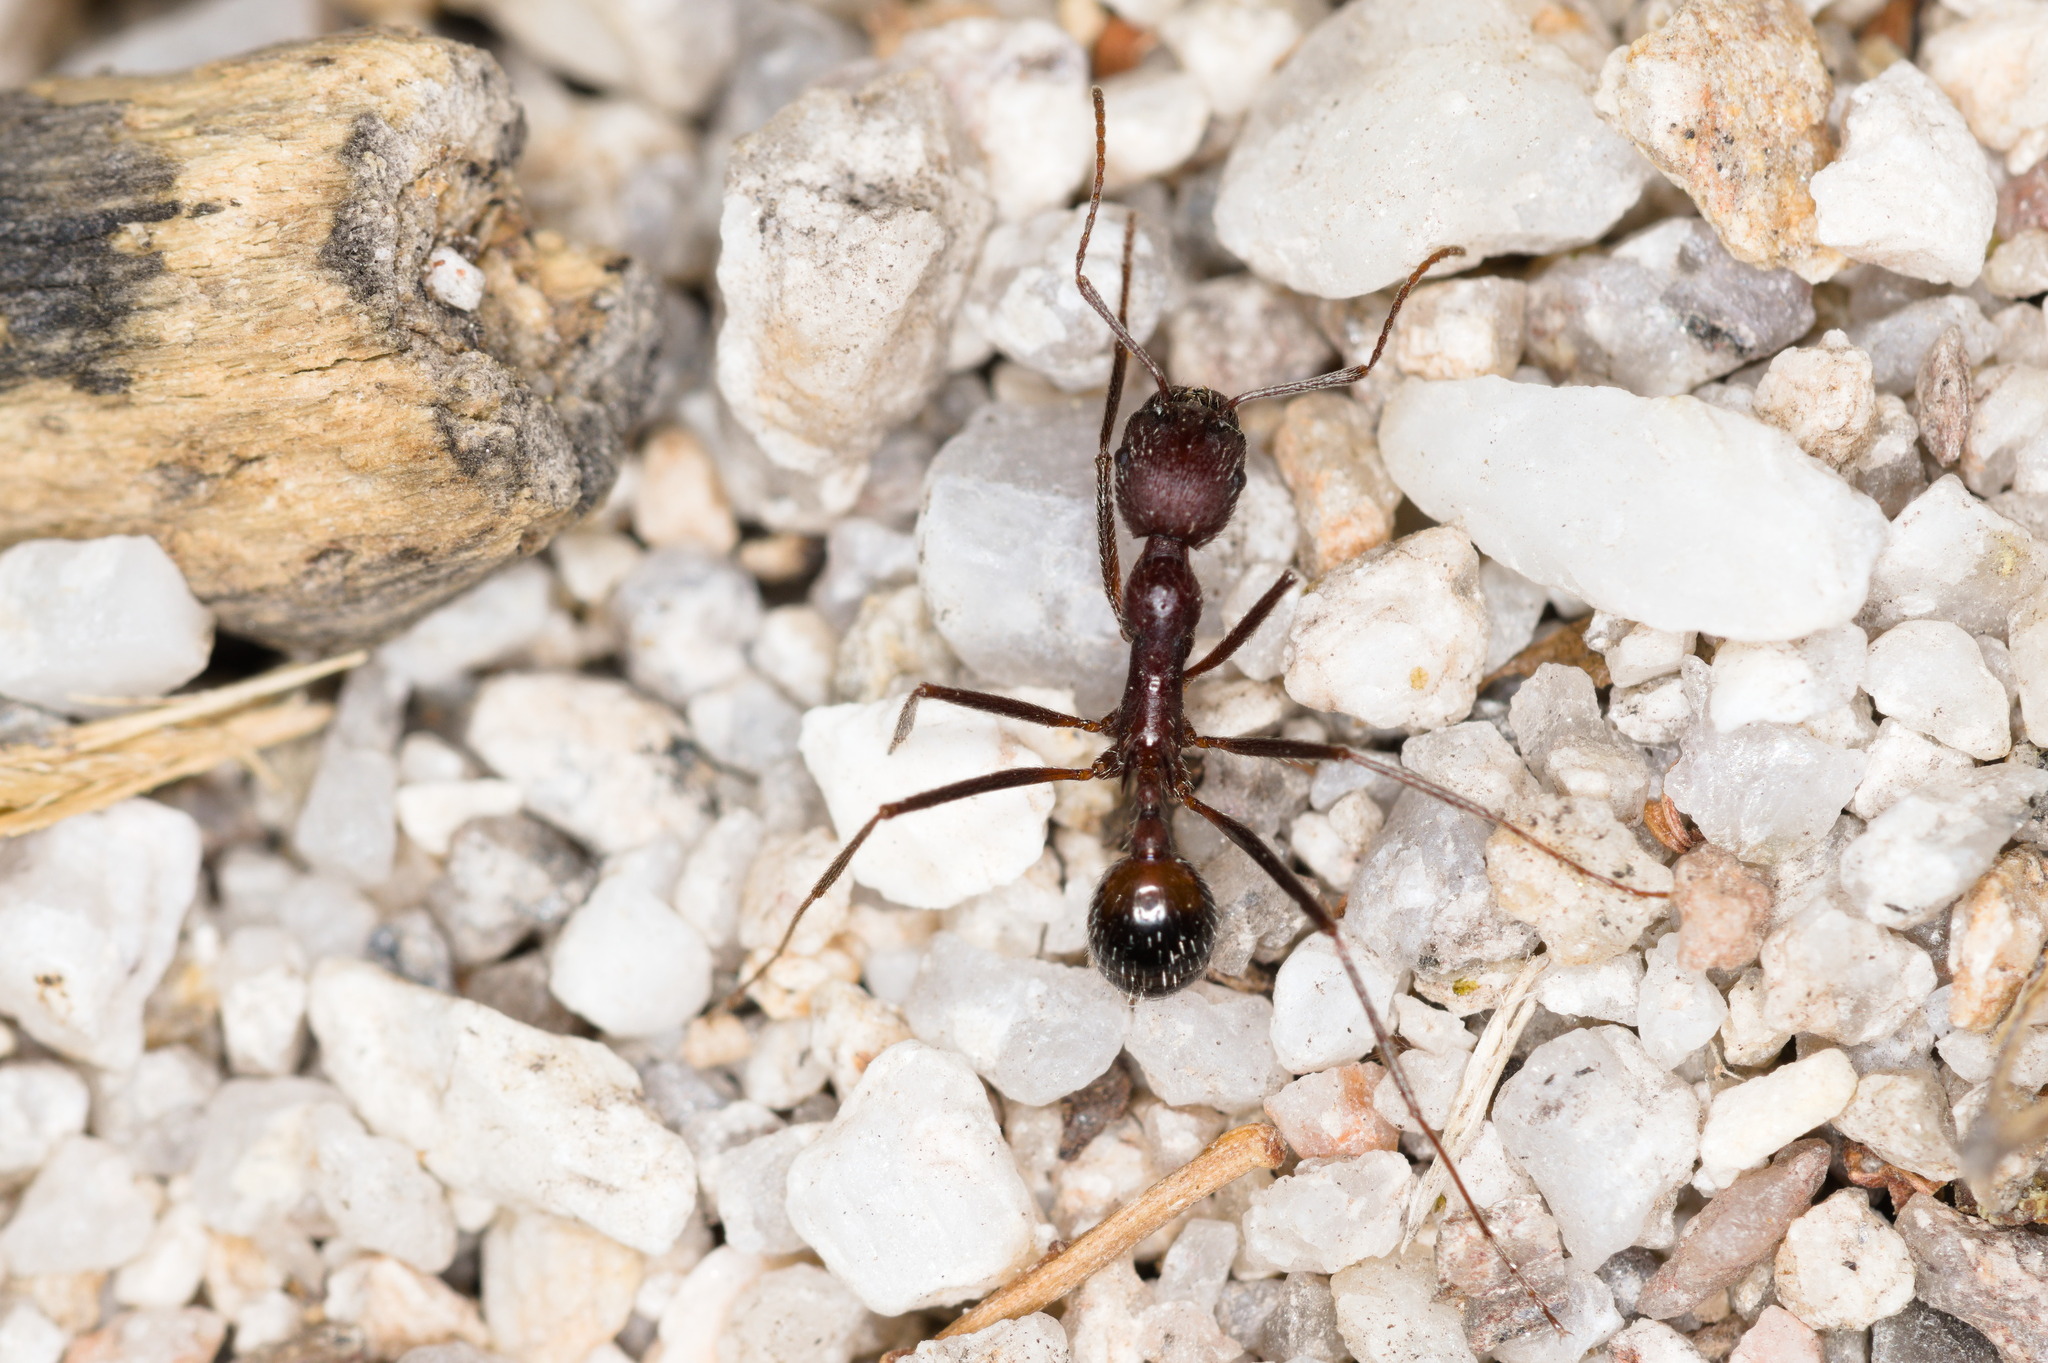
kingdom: Animalia
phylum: Arthropoda
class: Insecta
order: Hymenoptera
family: Formicidae
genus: Novomessor
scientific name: Novomessor albisetosa
